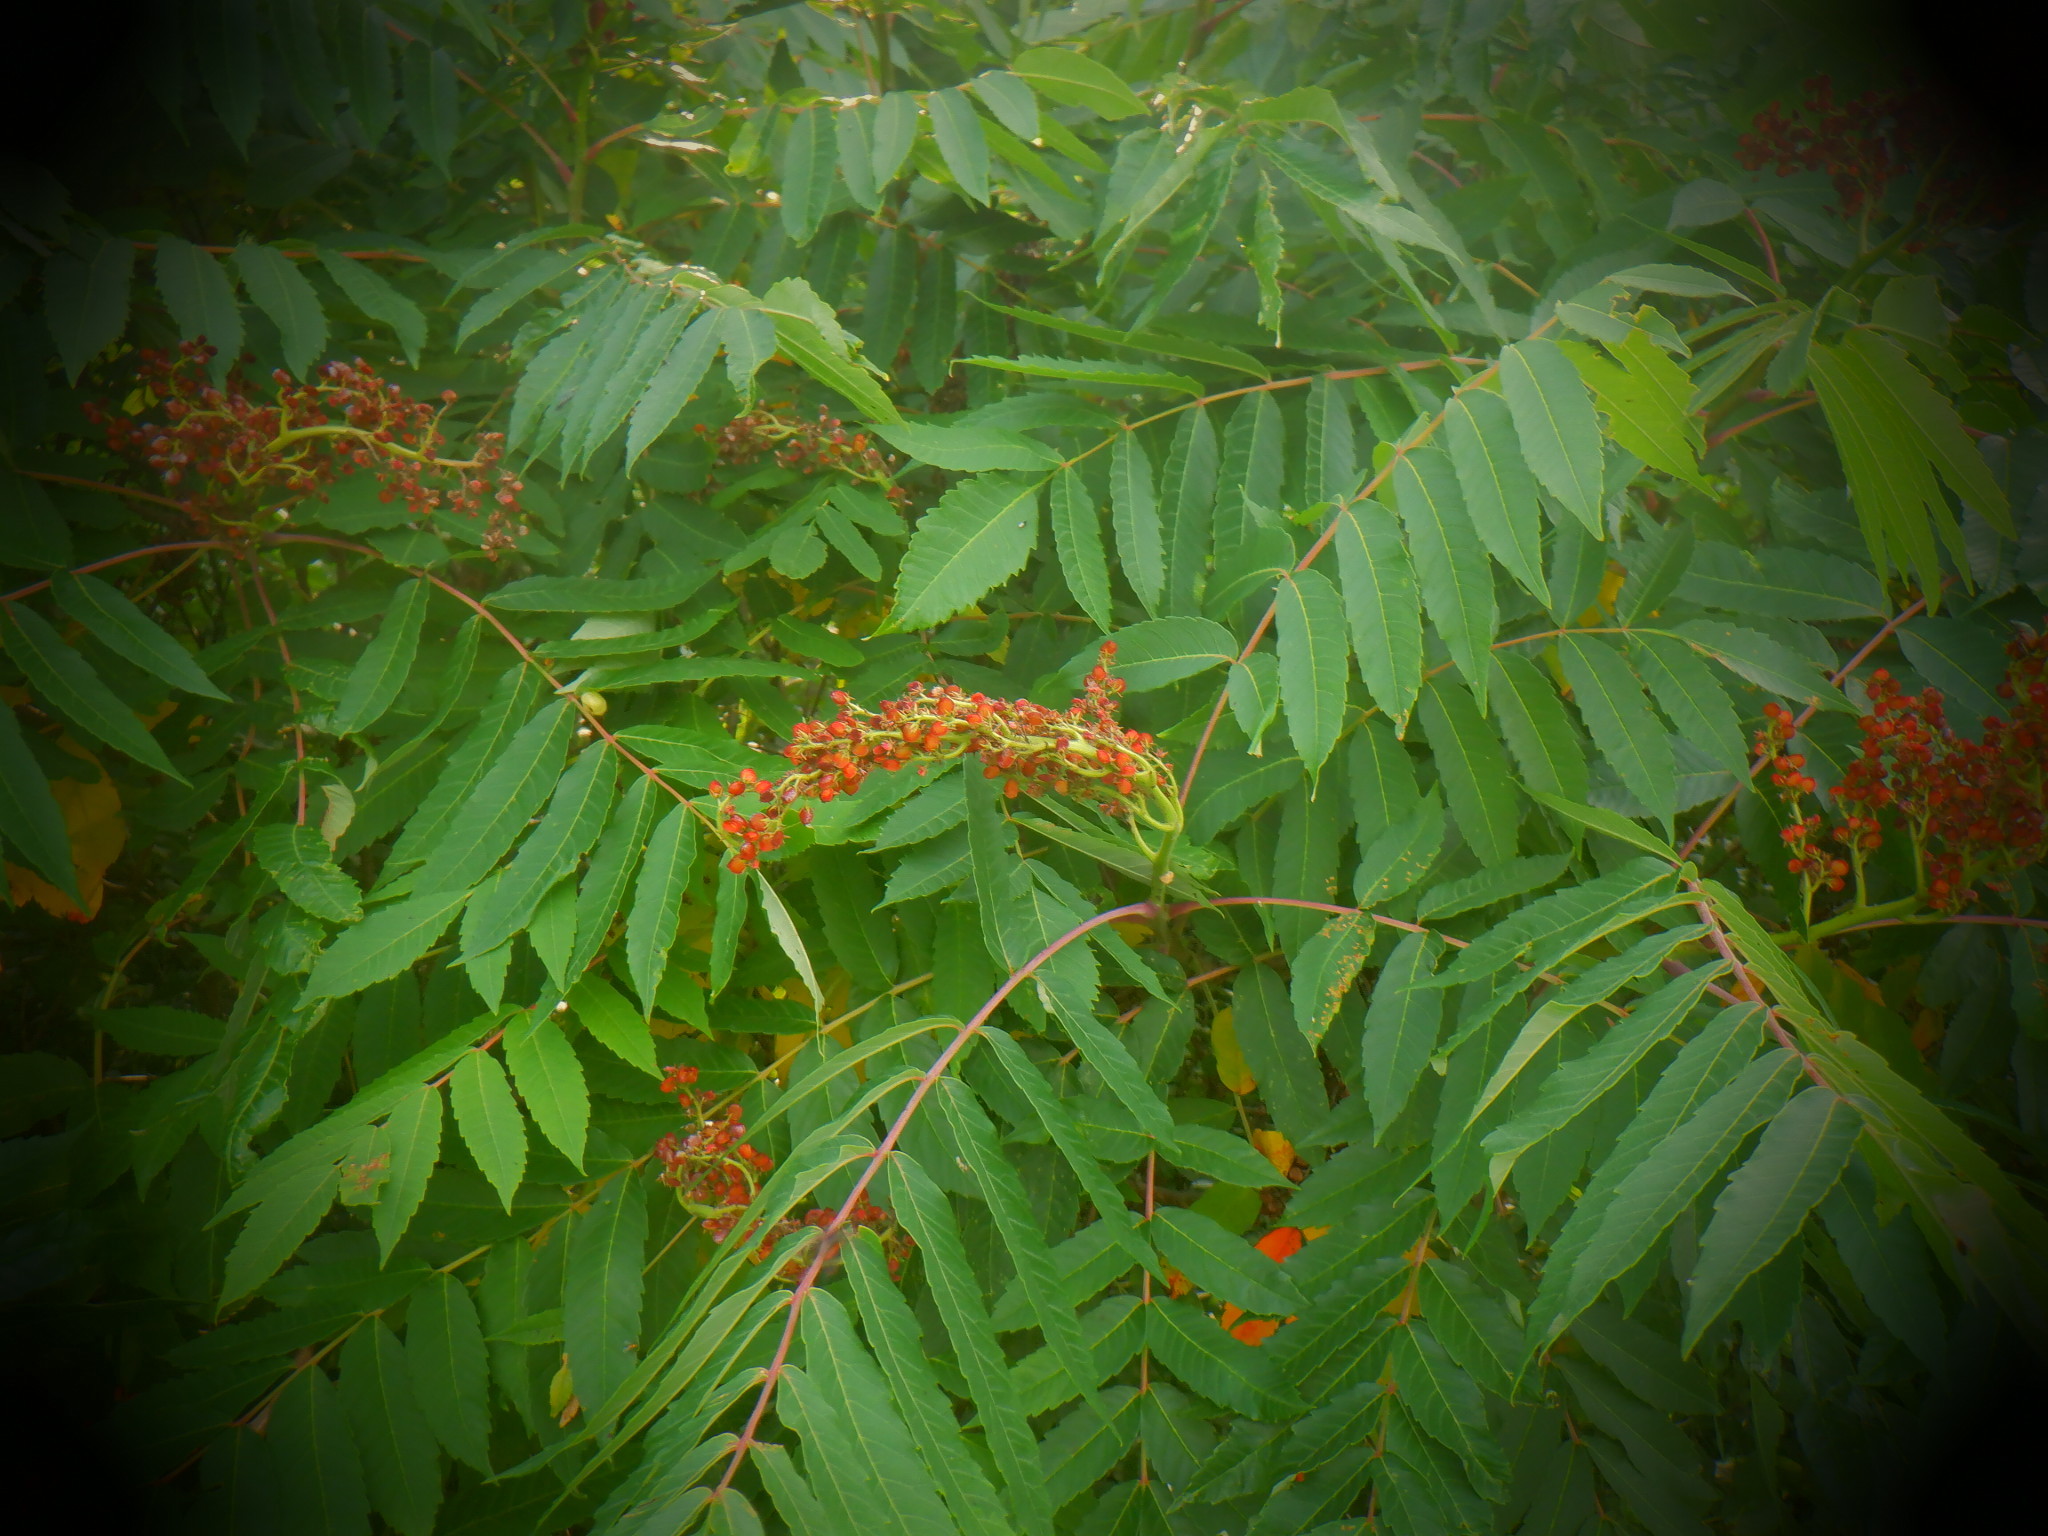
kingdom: Plantae
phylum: Tracheophyta
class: Magnoliopsida
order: Sapindales
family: Anacardiaceae
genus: Rhus
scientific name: Rhus glabra
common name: Scarlet sumac
